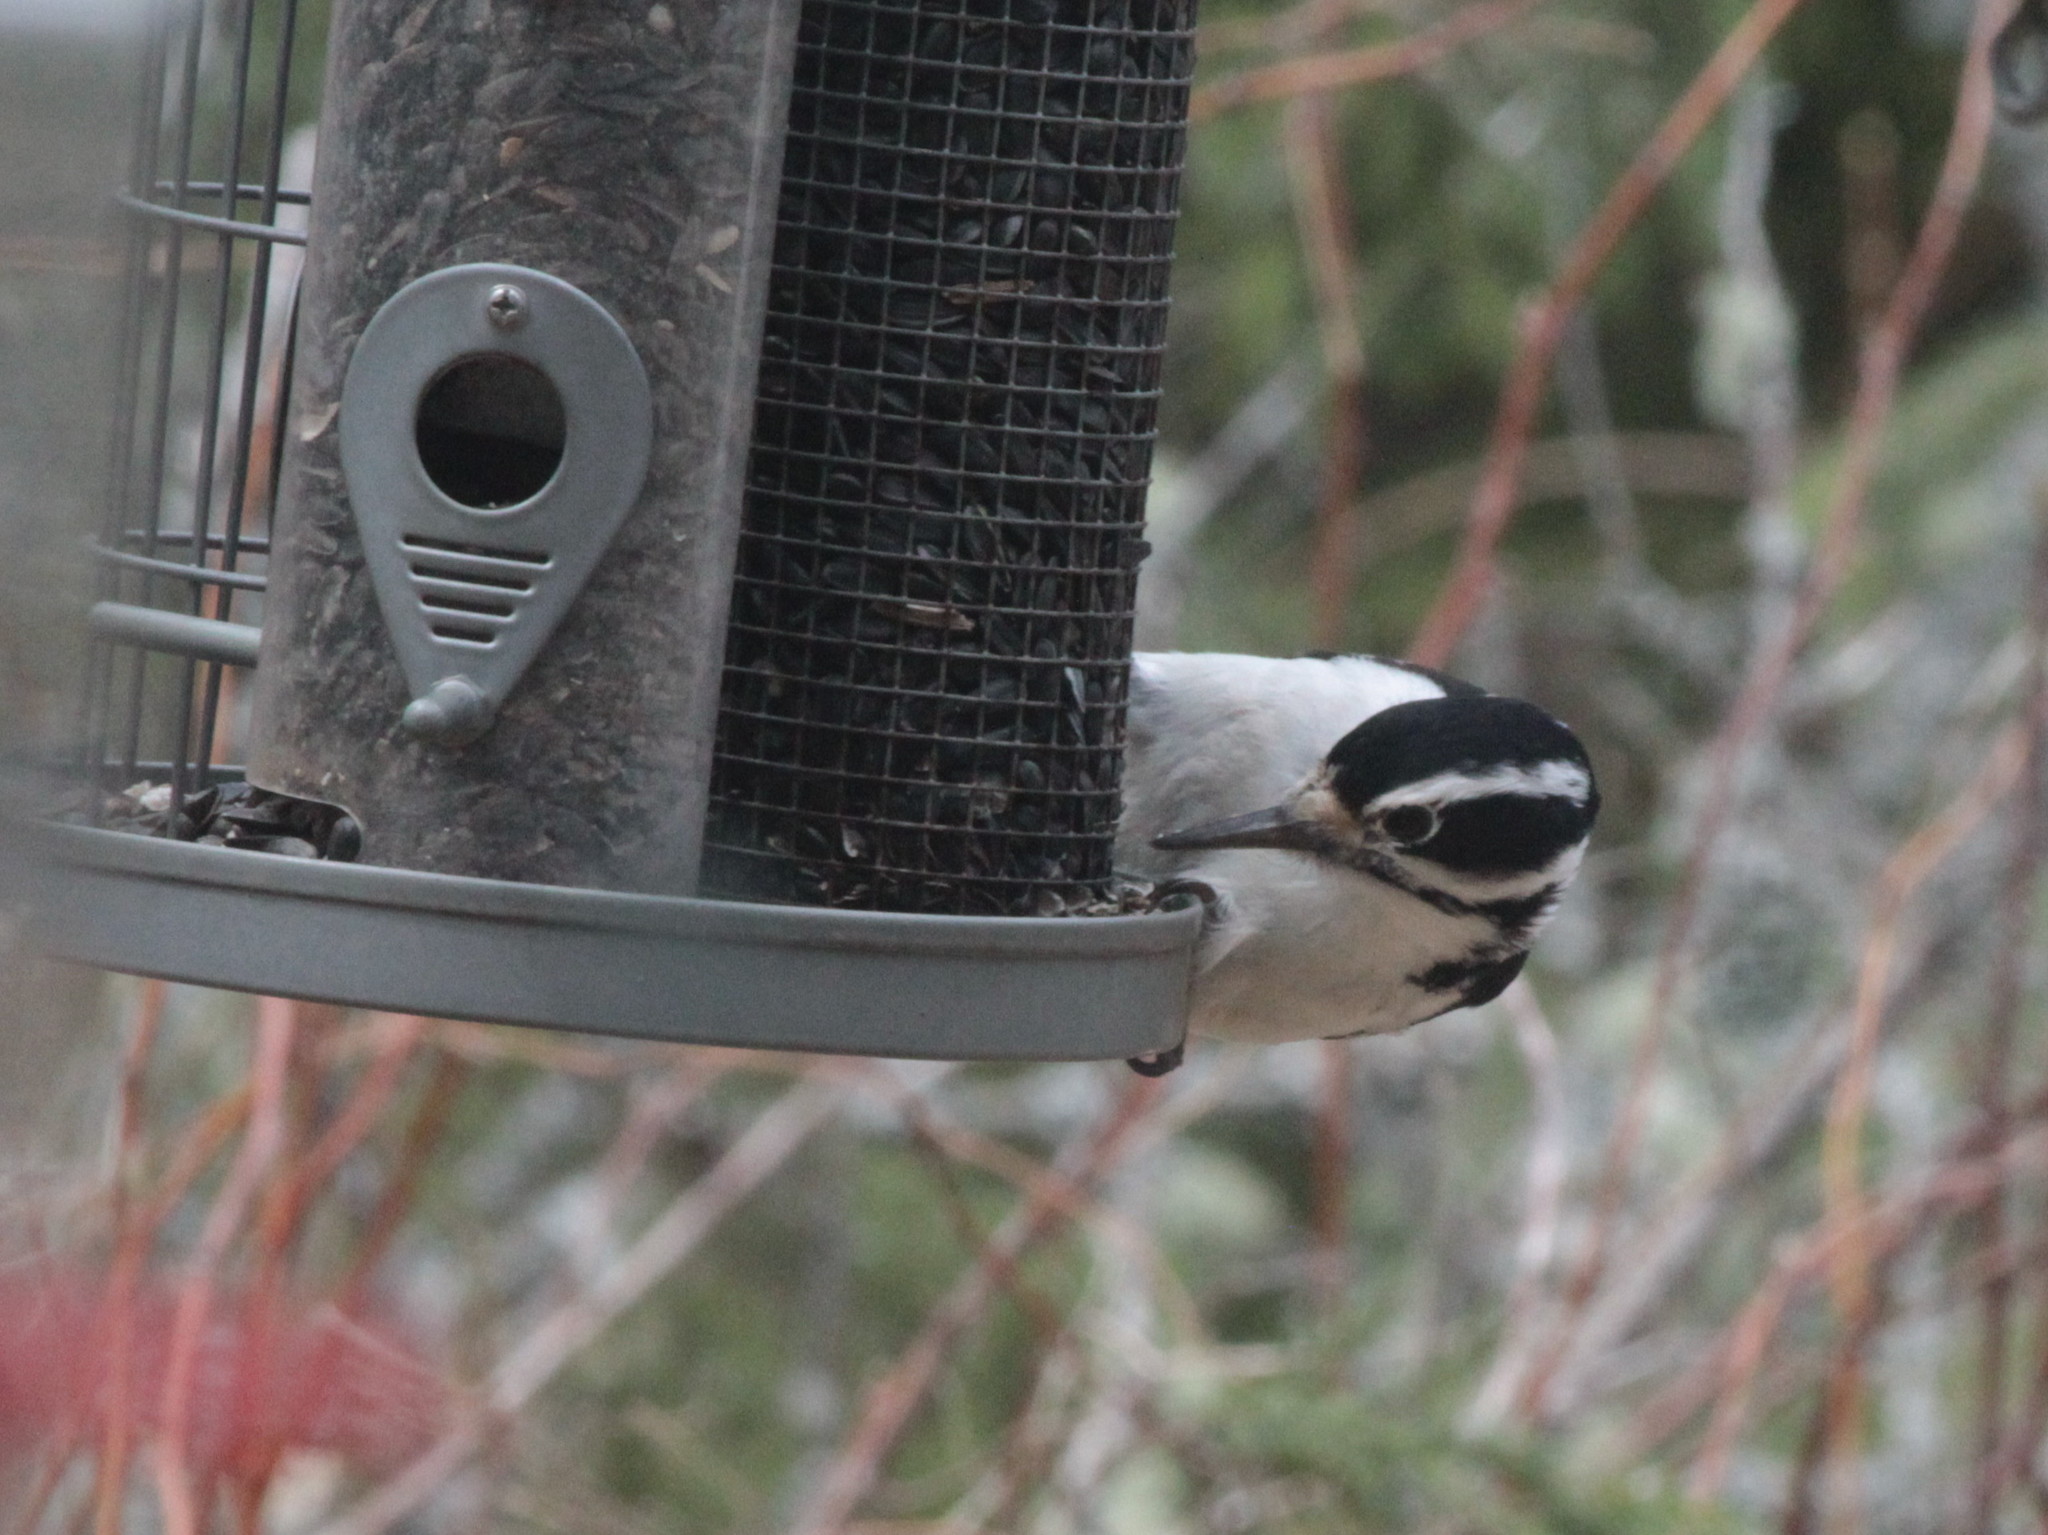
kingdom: Animalia
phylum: Chordata
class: Aves
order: Piciformes
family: Picidae
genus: Leuconotopicus
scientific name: Leuconotopicus villosus
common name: Hairy woodpecker
